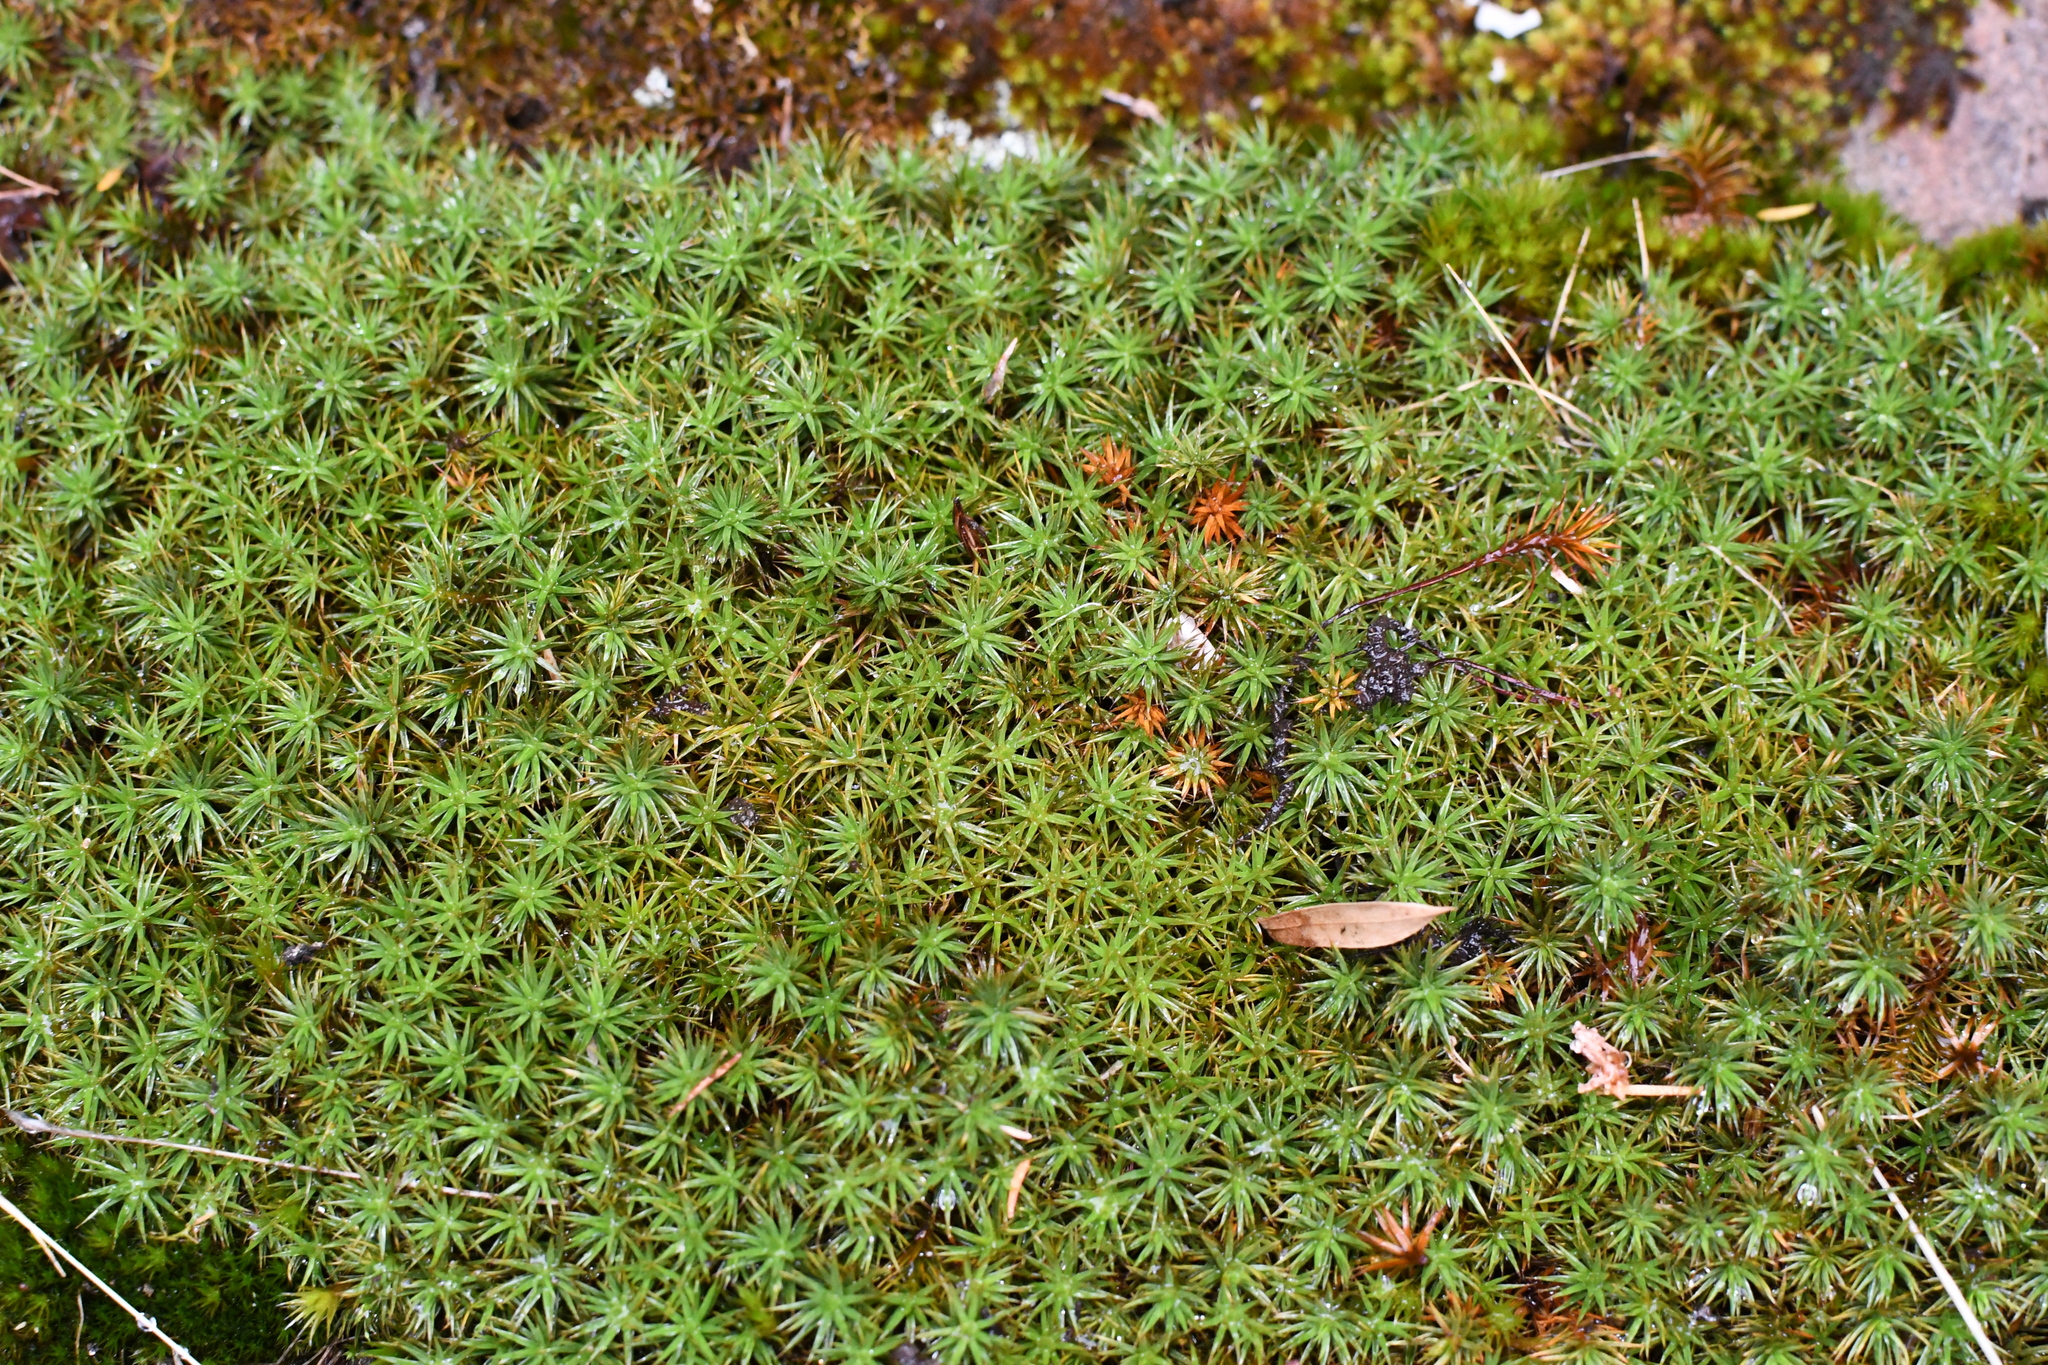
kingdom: Plantae
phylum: Bryophyta
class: Polytrichopsida
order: Polytrichales
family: Polytrichaceae
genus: Polytrichum
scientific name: Polytrichum juniperinum
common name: Juniper haircap moss
